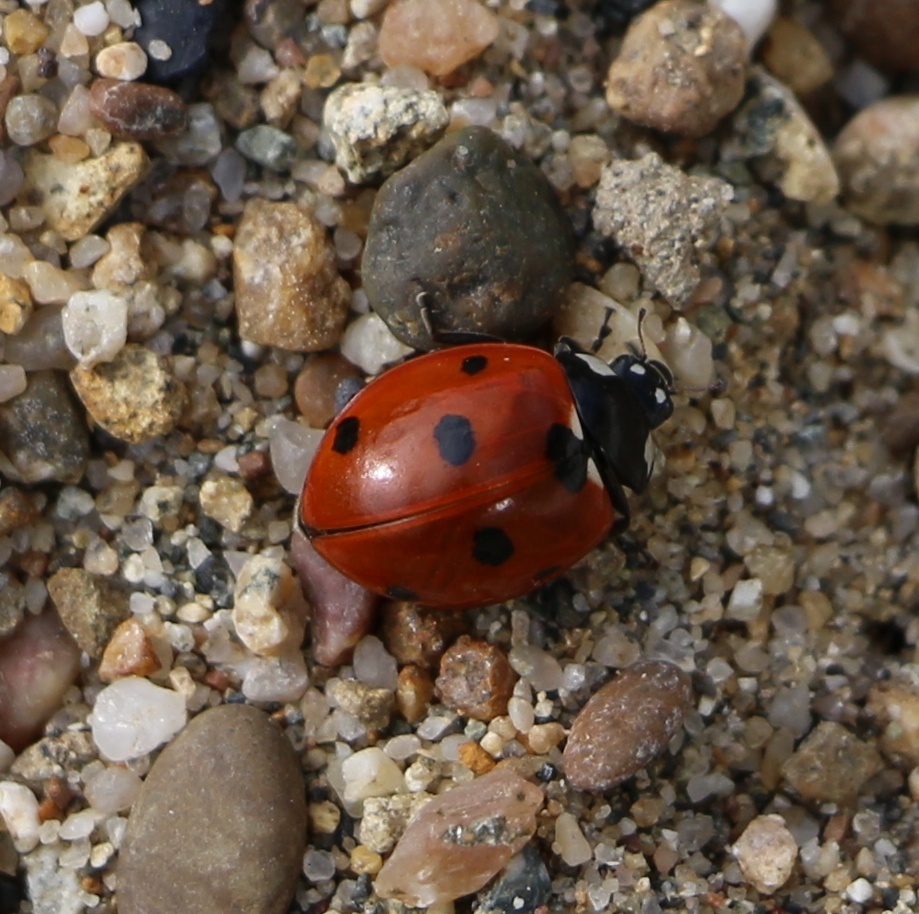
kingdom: Animalia
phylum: Arthropoda
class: Insecta
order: Coleoptera
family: Coccinellidae
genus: Coccinella
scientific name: Coccinella septempunctata
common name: Sevenspotted lady beetle
